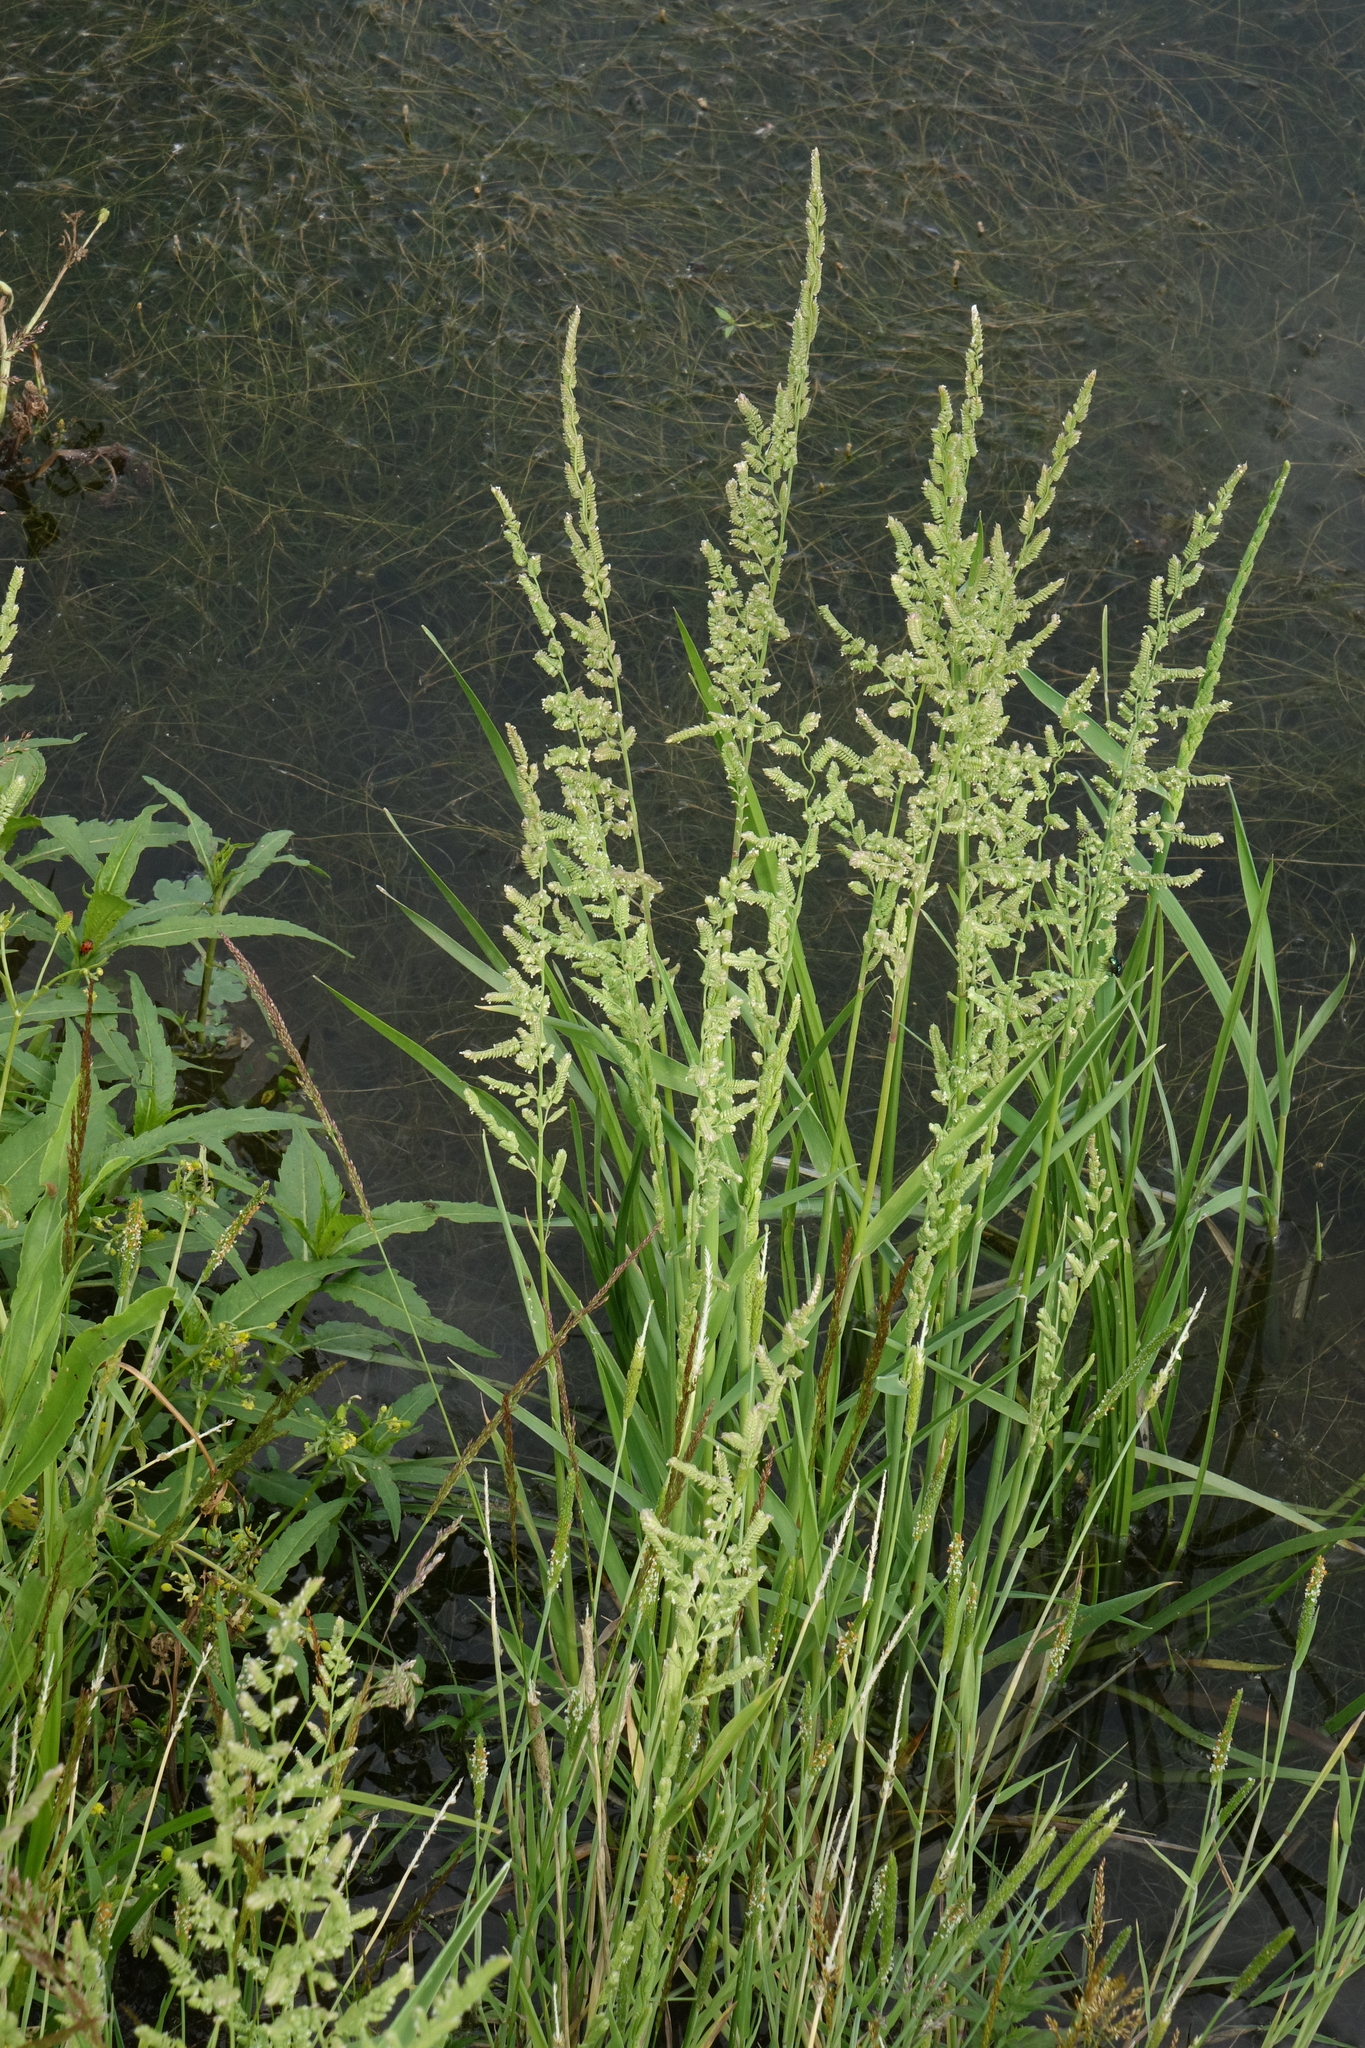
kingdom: Plantae
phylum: Tracheophyta
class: Liliopsida
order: Poales
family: Poaceae
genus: Beckmannia
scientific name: Beckmannia syzigachne
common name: American slough-grass
